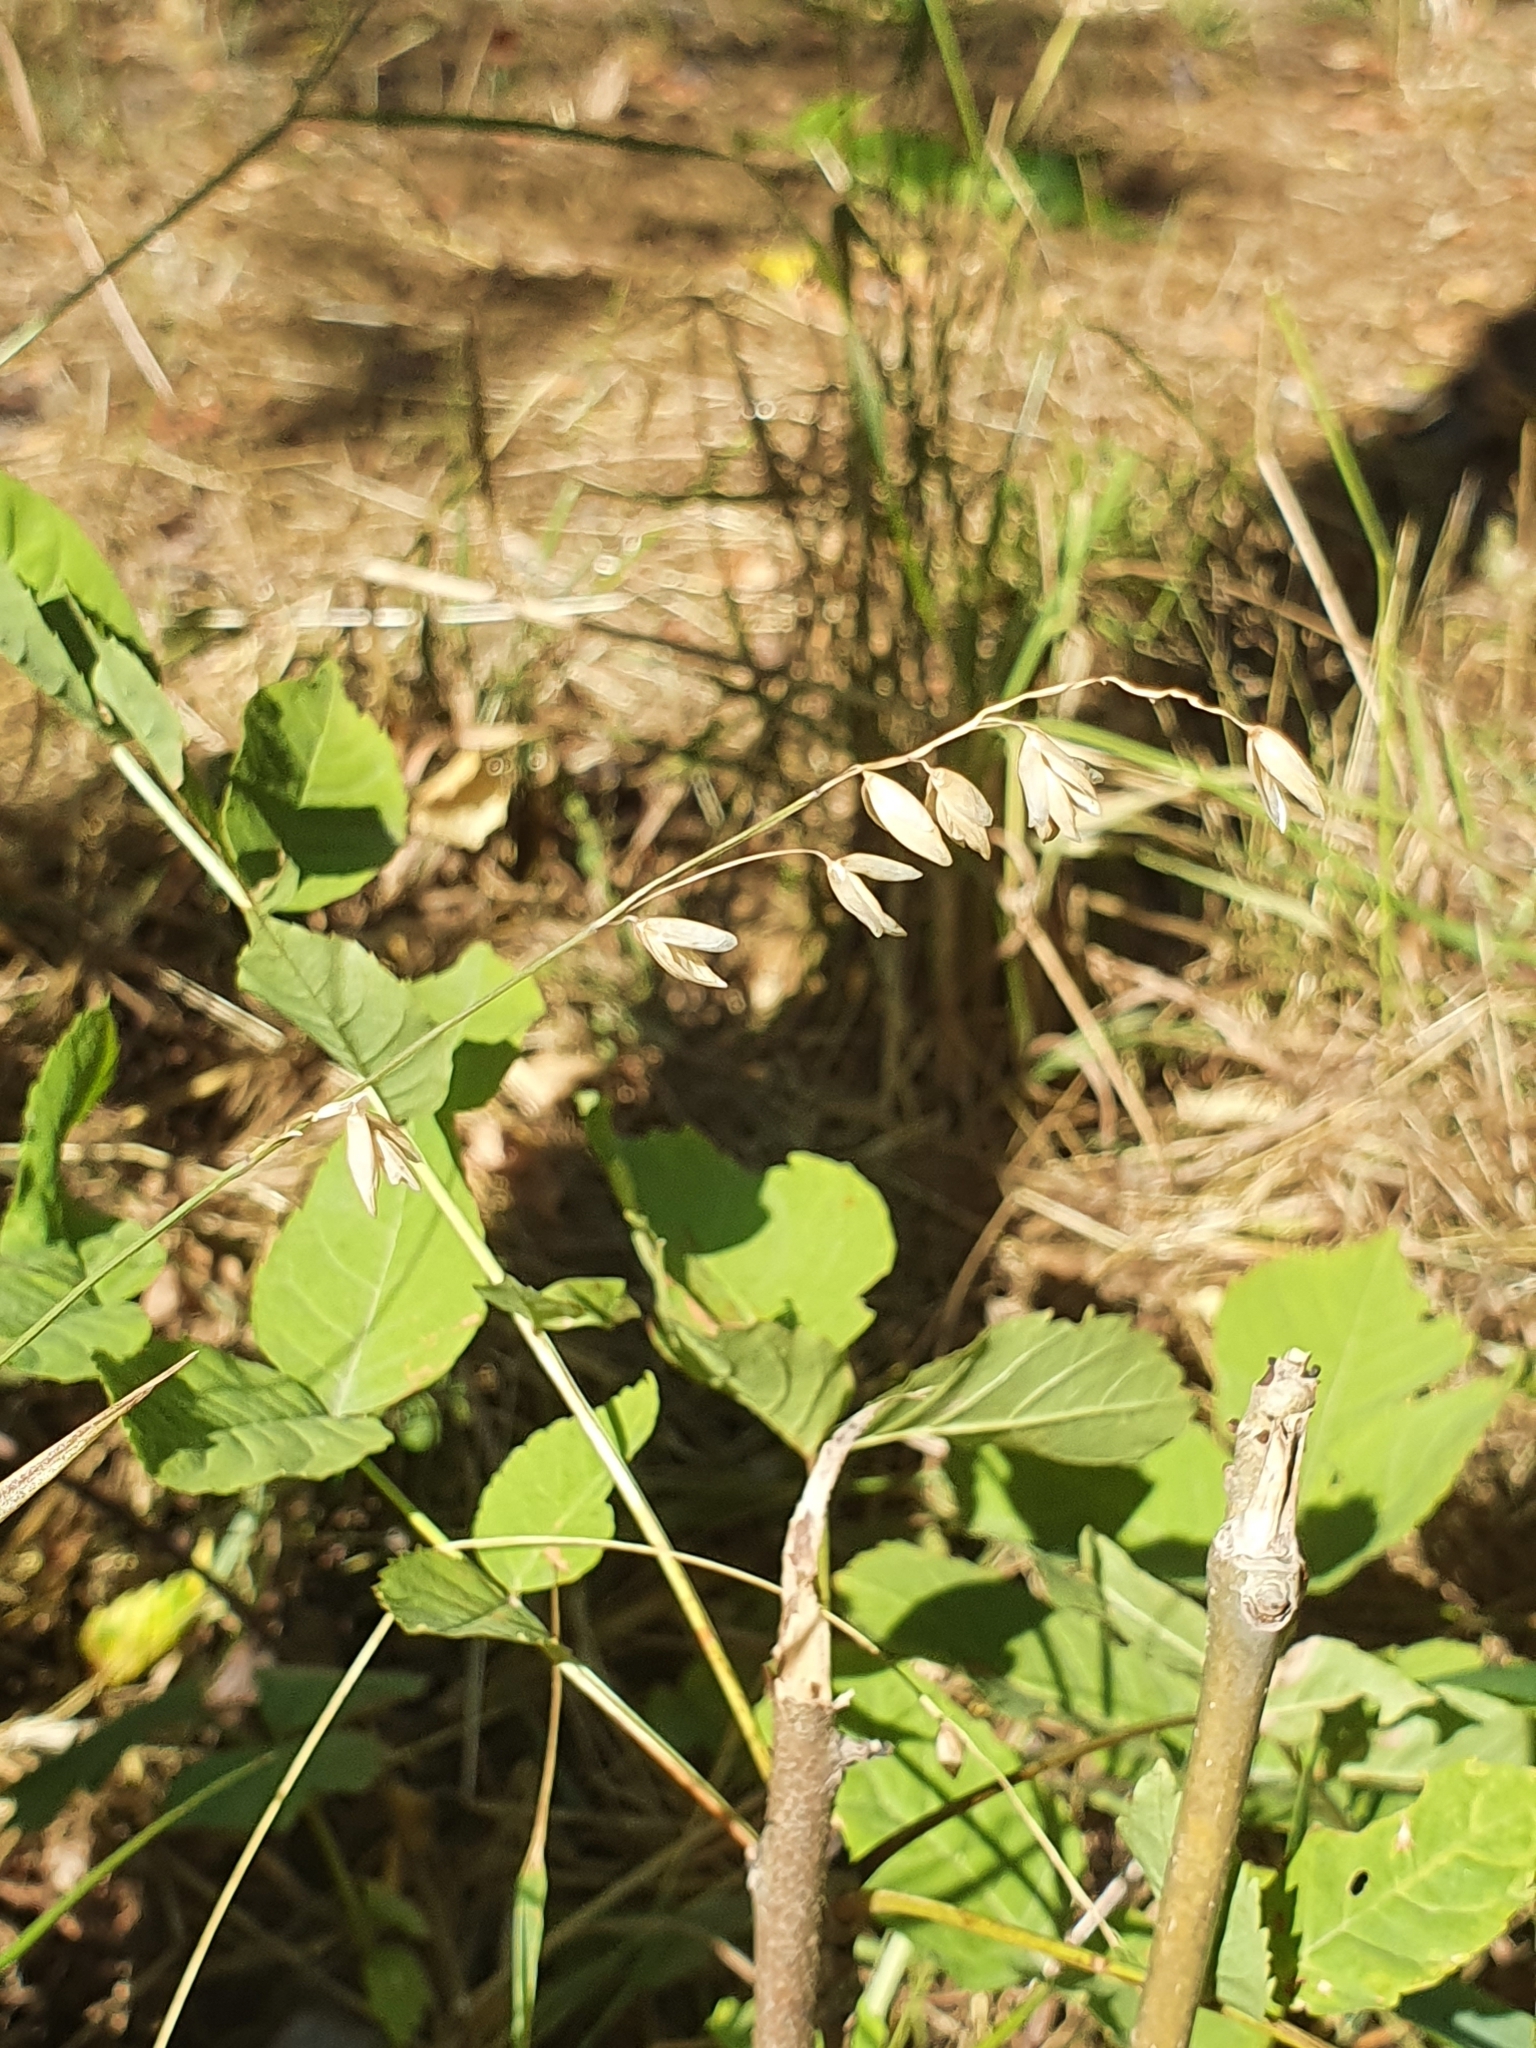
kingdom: Plantae
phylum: Tracheophyta
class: Liliopsida
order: Poales
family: Poaceae
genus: Melica
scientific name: Melica nutans
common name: Mountain melick
